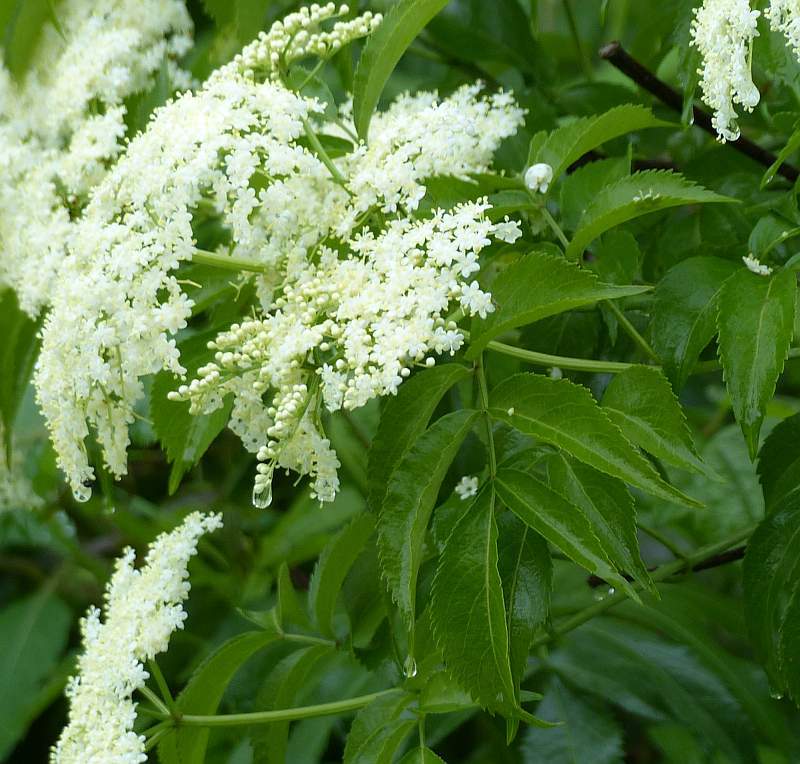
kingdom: Plantae
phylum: Tracheophyta
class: Magnoliopsida
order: Dipsacales
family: Viburnaceae
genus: Sambucus
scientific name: Sambucus canadensis
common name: American elder
